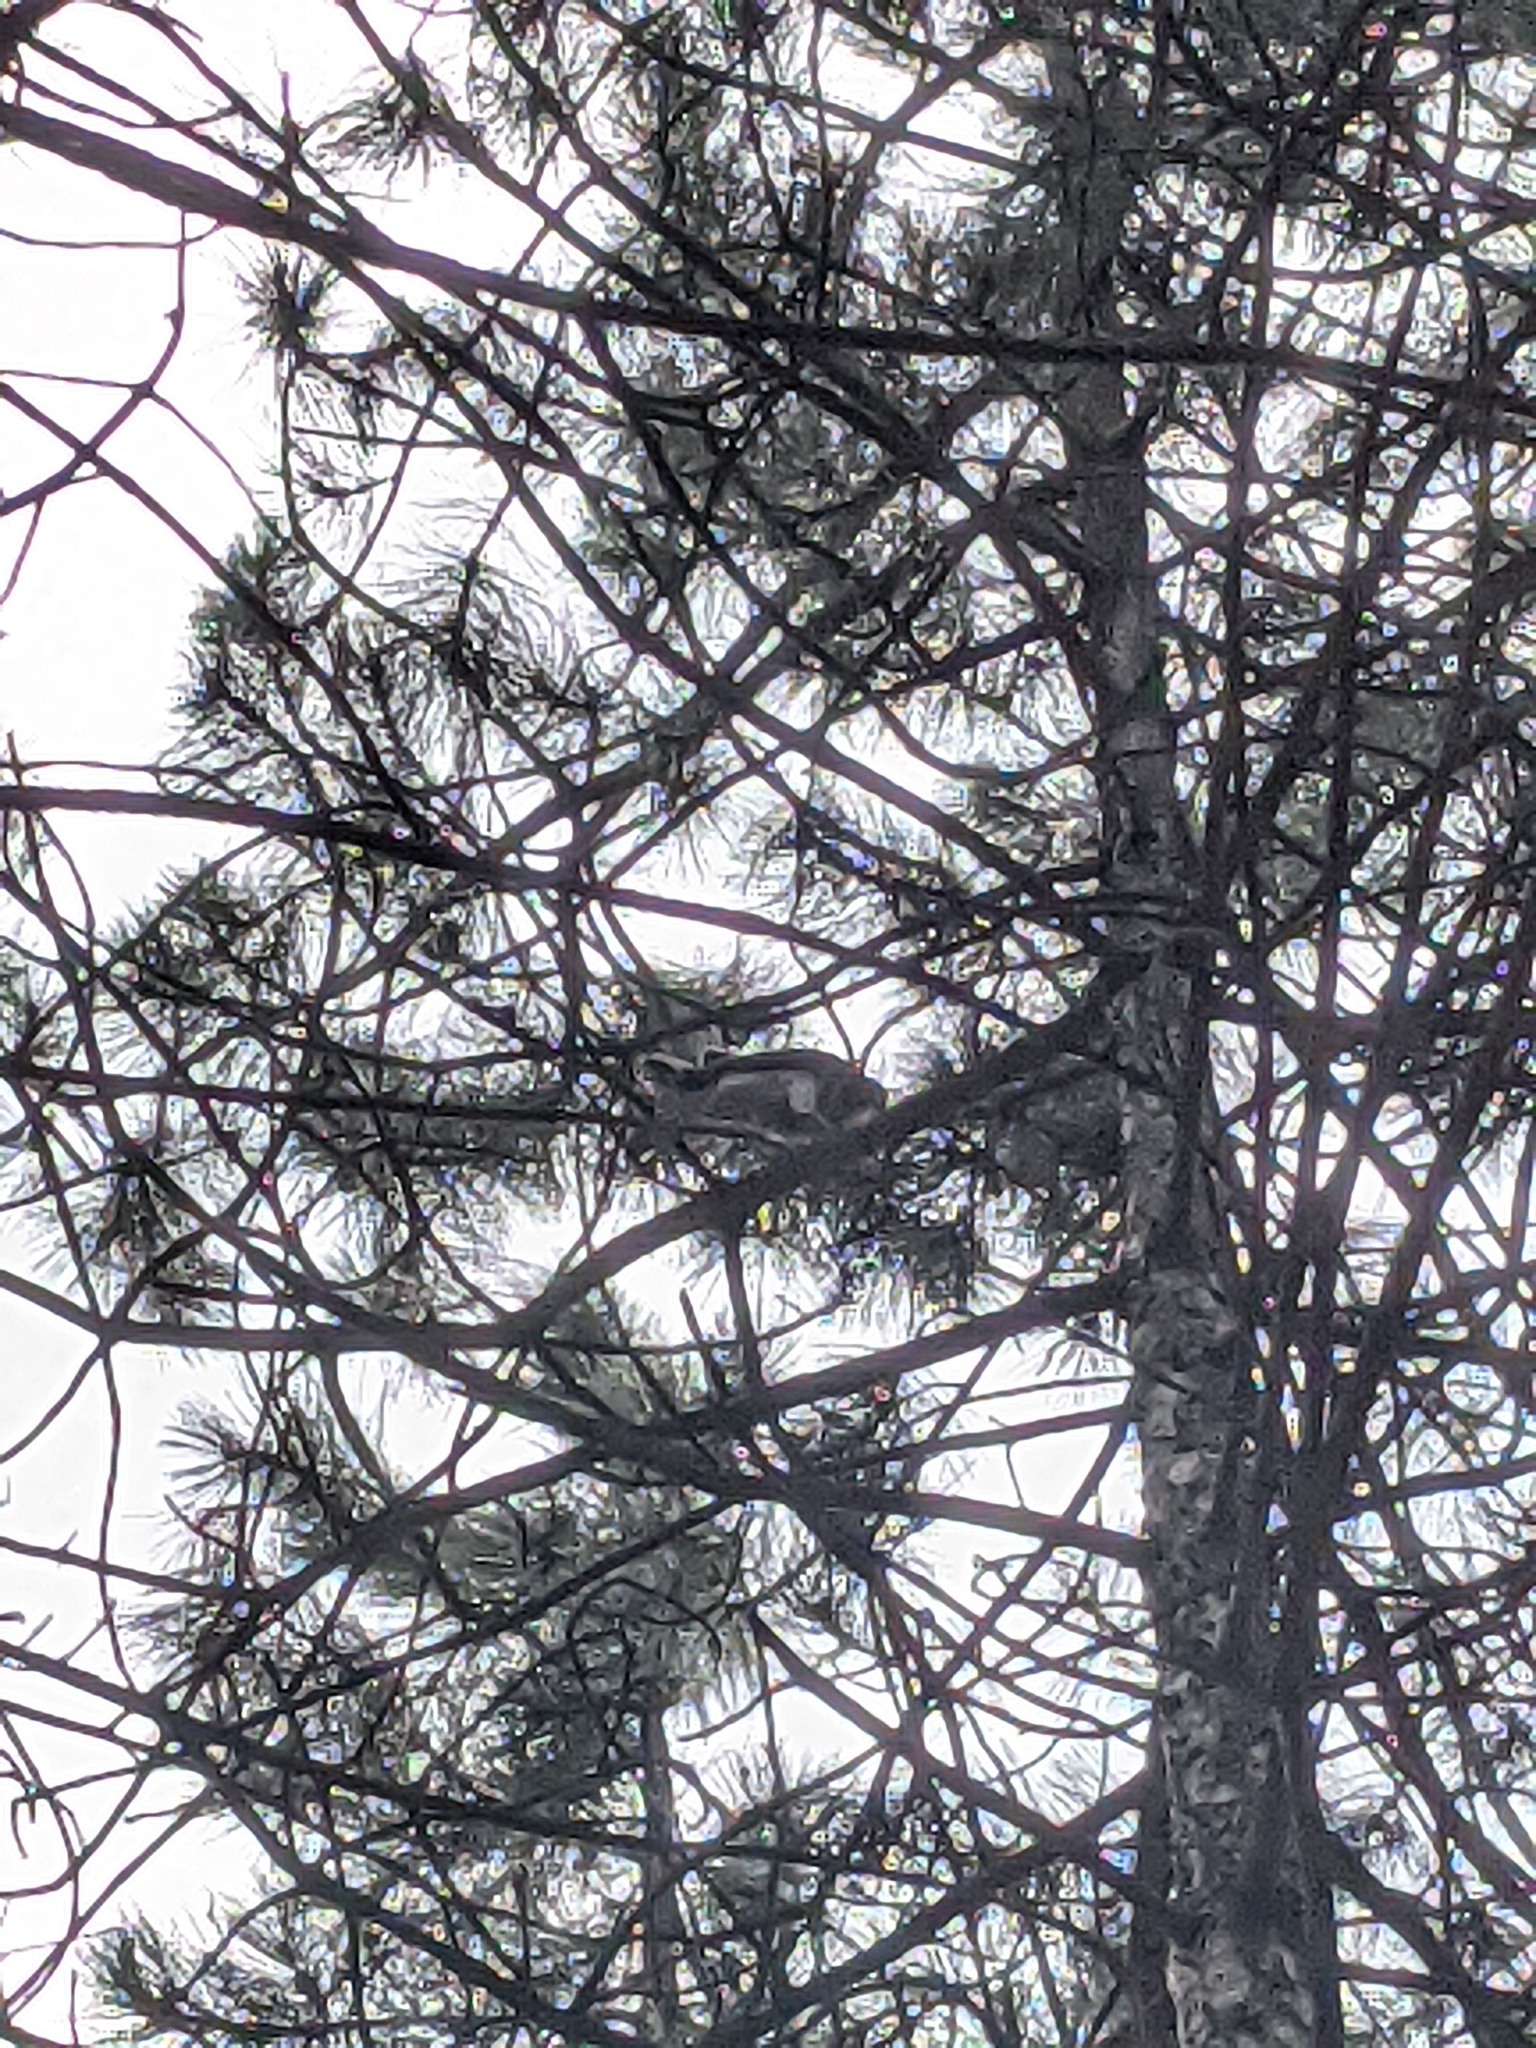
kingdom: Animalia
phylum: Chordata
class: Aves
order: Accipitriformes
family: Accipitridae
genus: Accipiter
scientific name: Accipiter nisus
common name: Eurasian sparrowhawk
